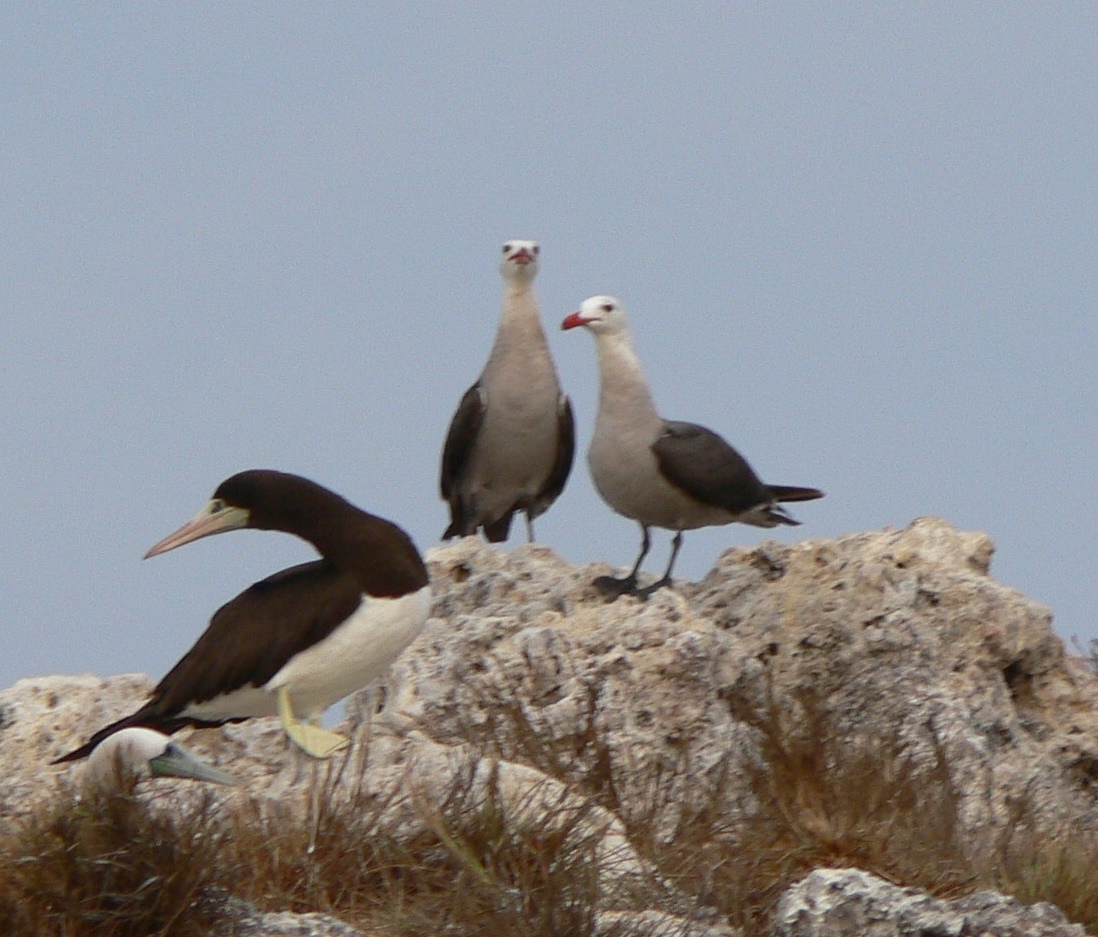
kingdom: Animalia
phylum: Chordata
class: Aves
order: Charadriiformes
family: Laridae
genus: Larus
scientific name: Larus heermanni
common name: Heermann's gull
